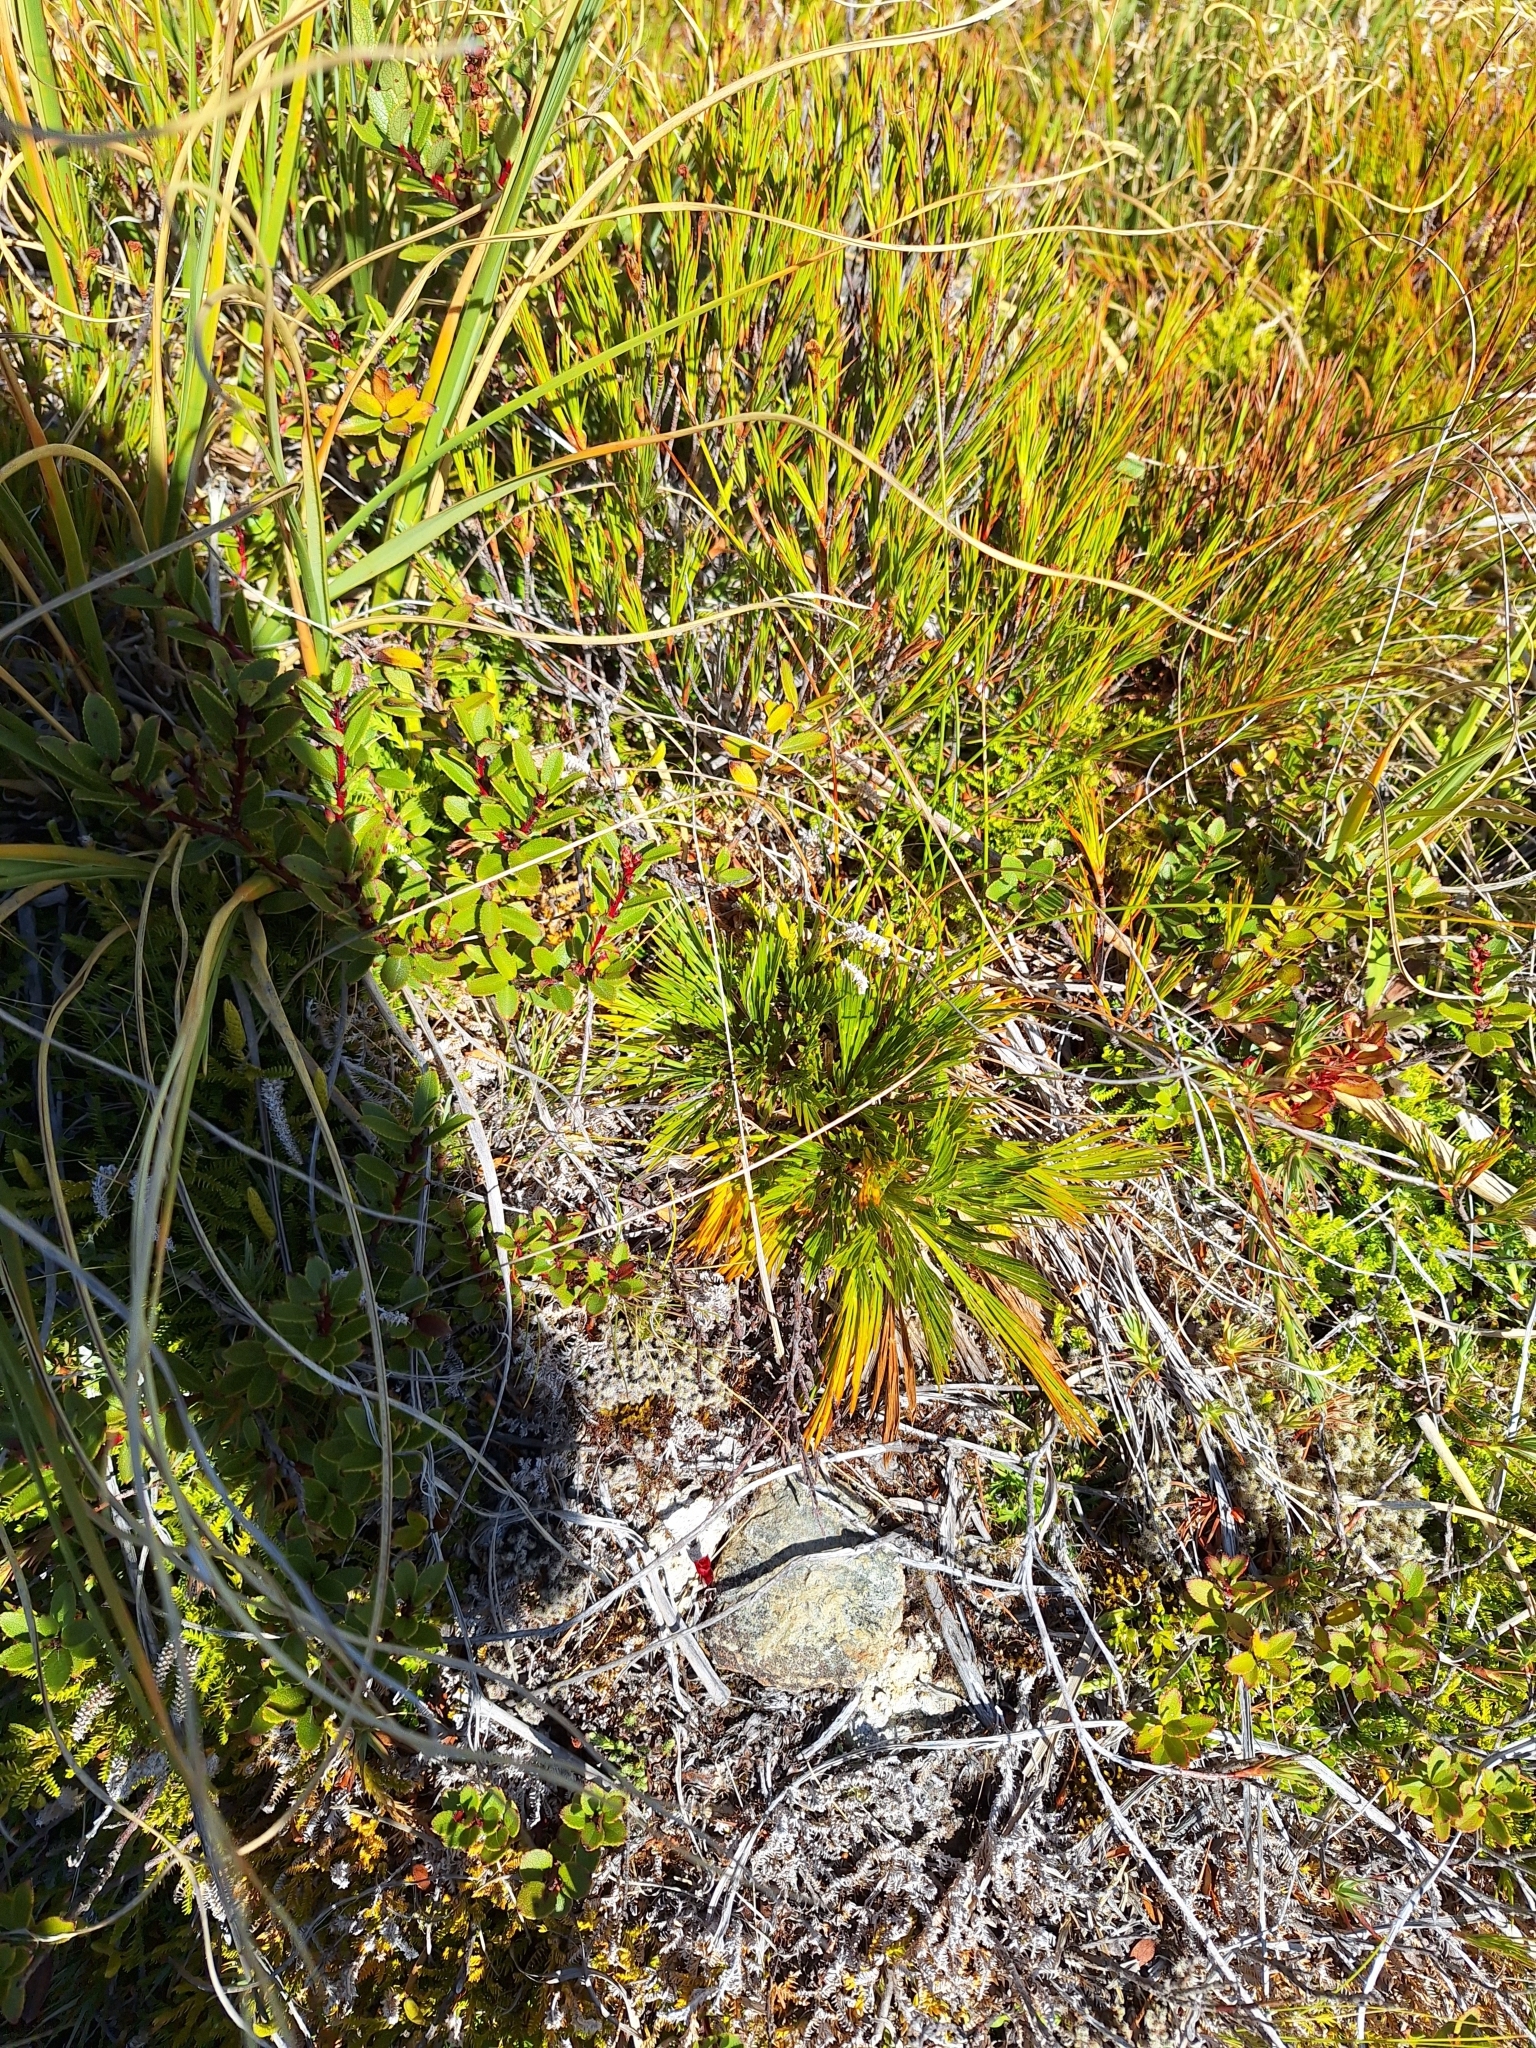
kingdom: Plantae
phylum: Tracheophyta
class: Magnoliopsida
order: Apiales
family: Apiaceae
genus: Aciphylla
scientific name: Aciphylla divisa
